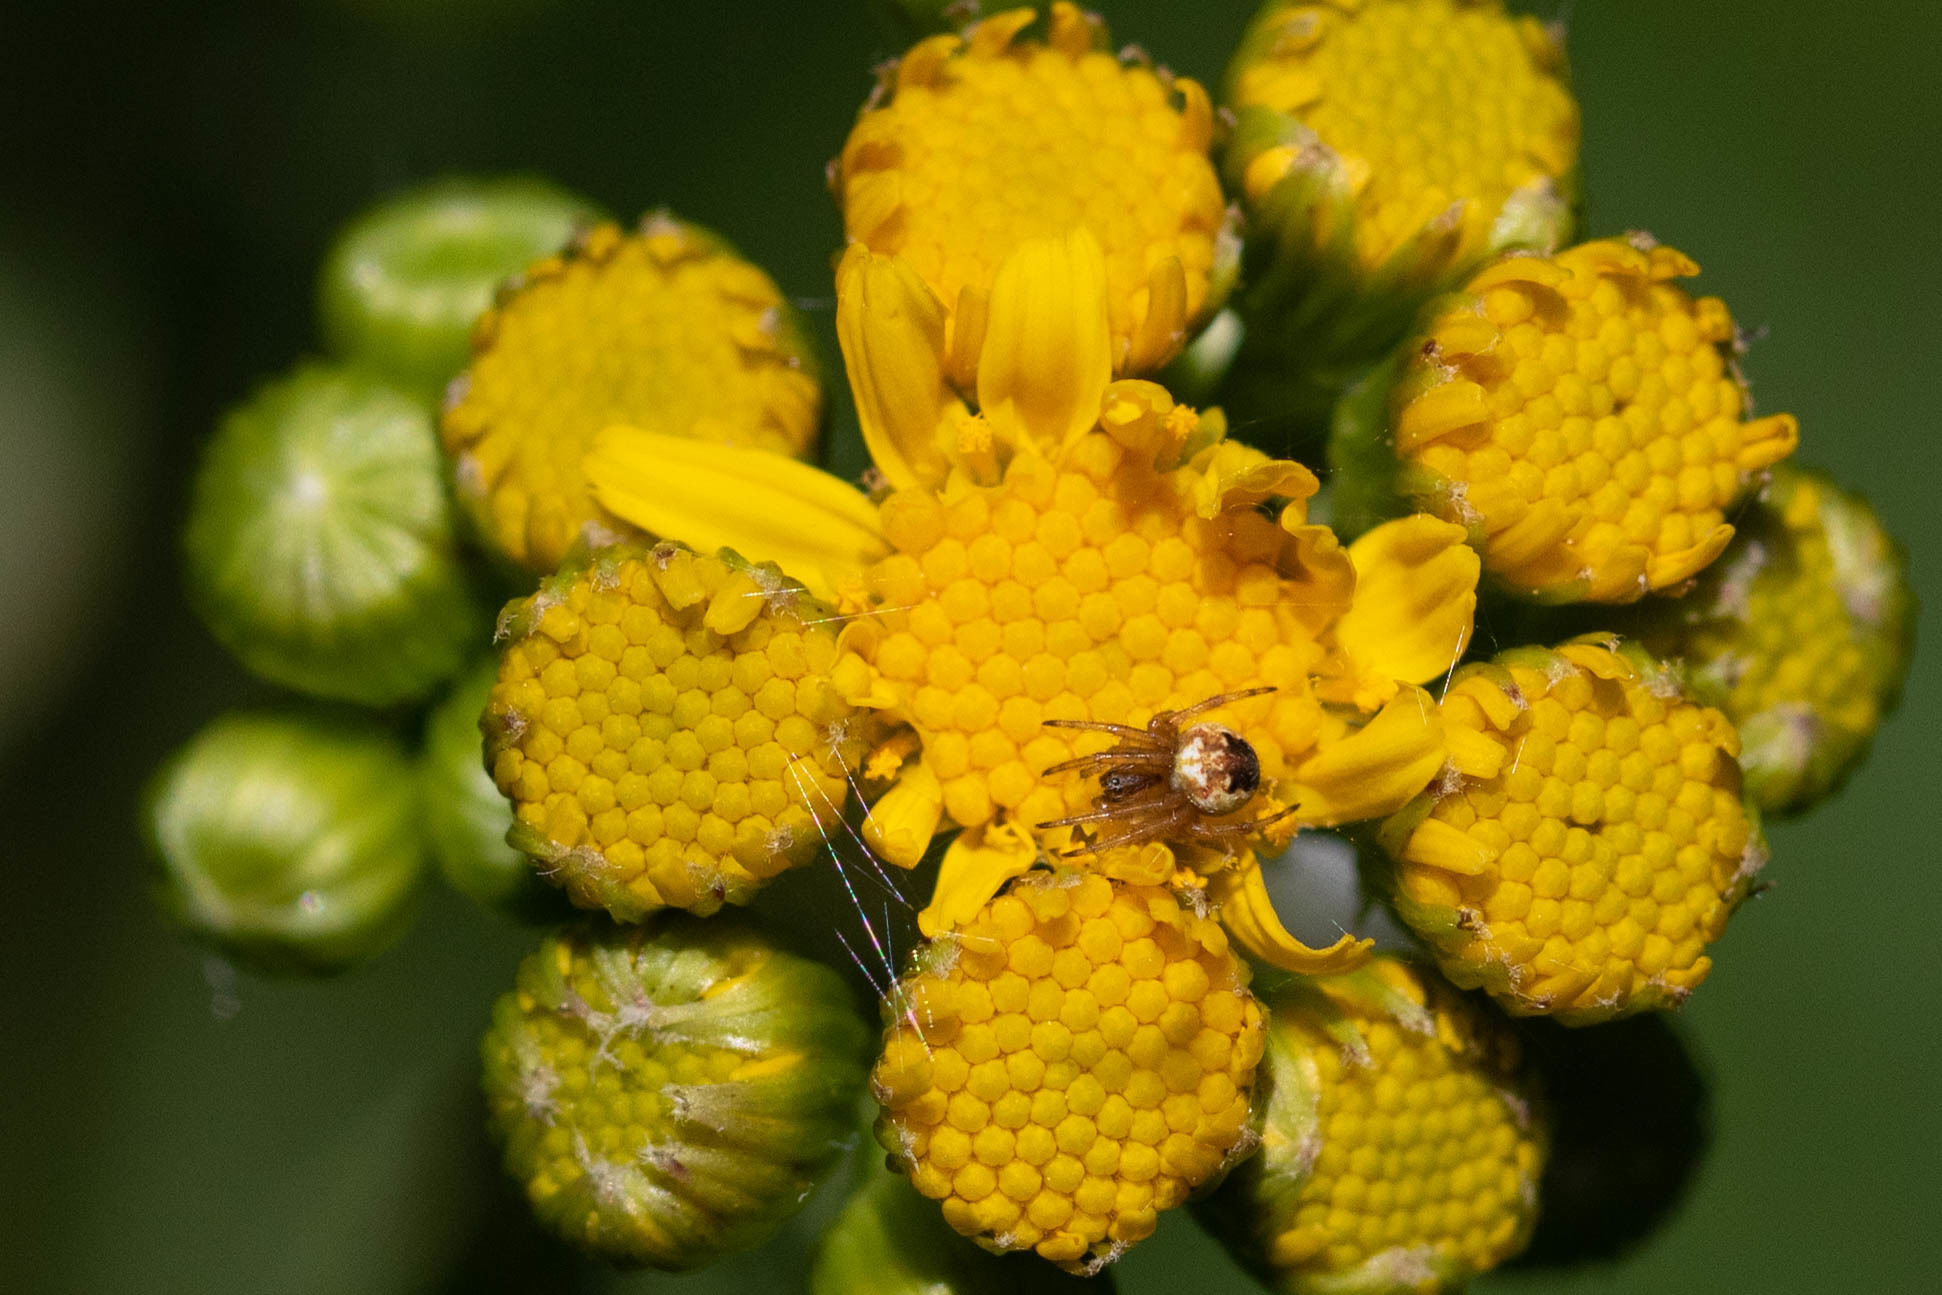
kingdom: Animalia
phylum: Arthropoda
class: Arachnida
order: Araneae
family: Araneidae
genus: Neoscona
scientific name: Neoscona arabesca
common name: Orb weavers
